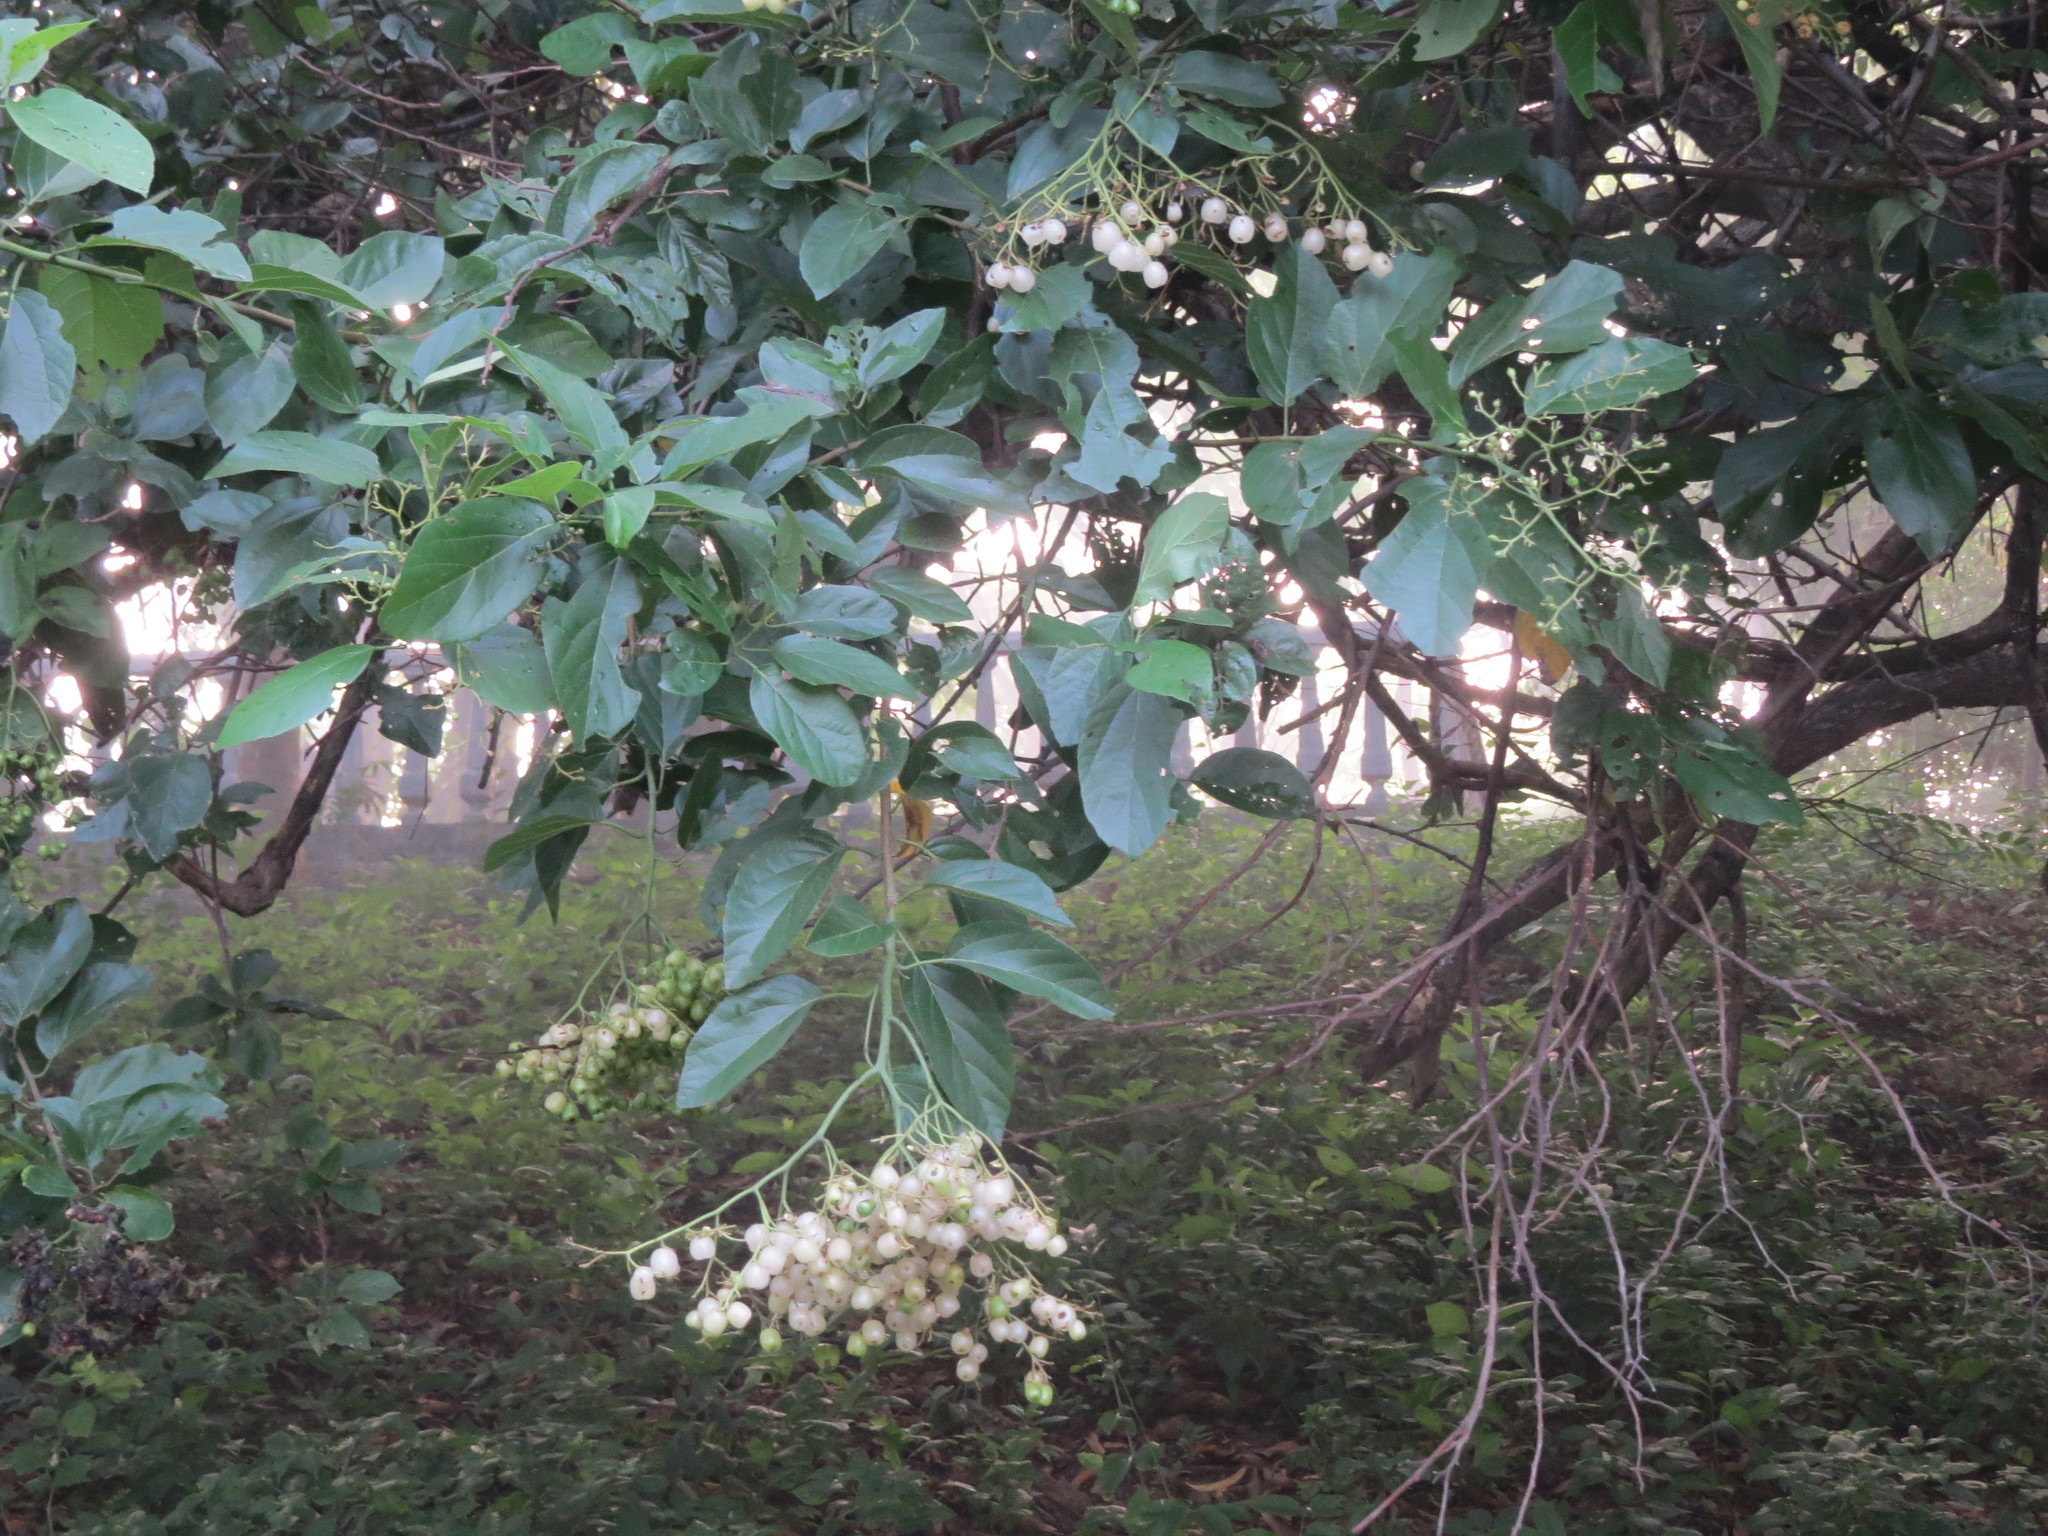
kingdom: Plantae
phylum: Tracheophyta
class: Magnoliopsida
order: Boraginales
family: Cordiaceae
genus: Cordia
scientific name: Cordia dentata
